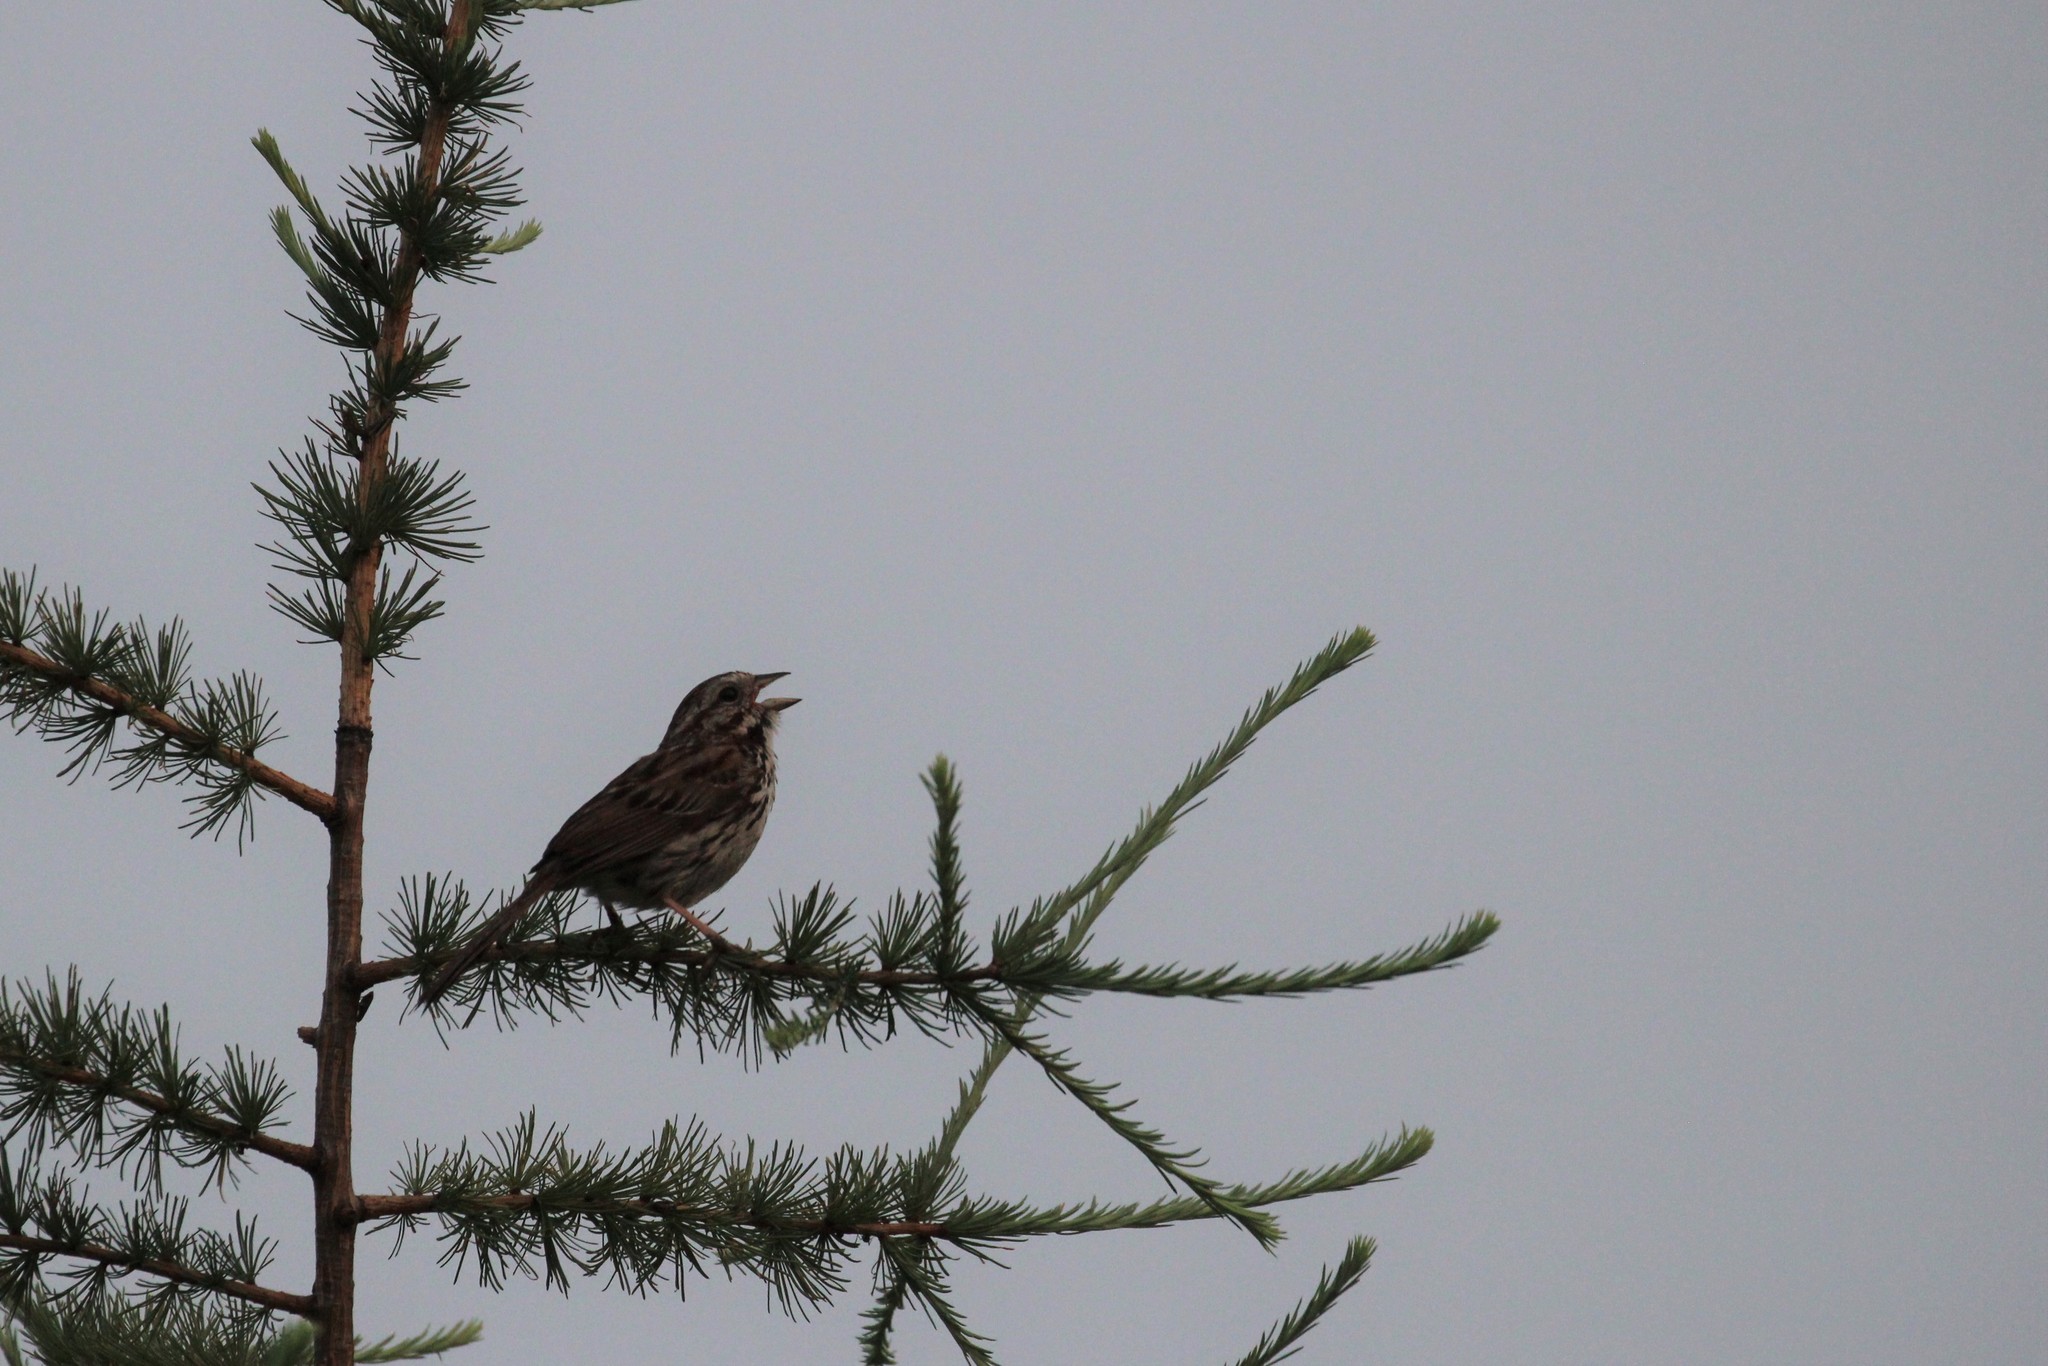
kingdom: Animalia
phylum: Chordata
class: Aves
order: Passeriformes
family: Passerellidae
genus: Melospiza
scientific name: Melospiza melodia
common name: Song sparrow
